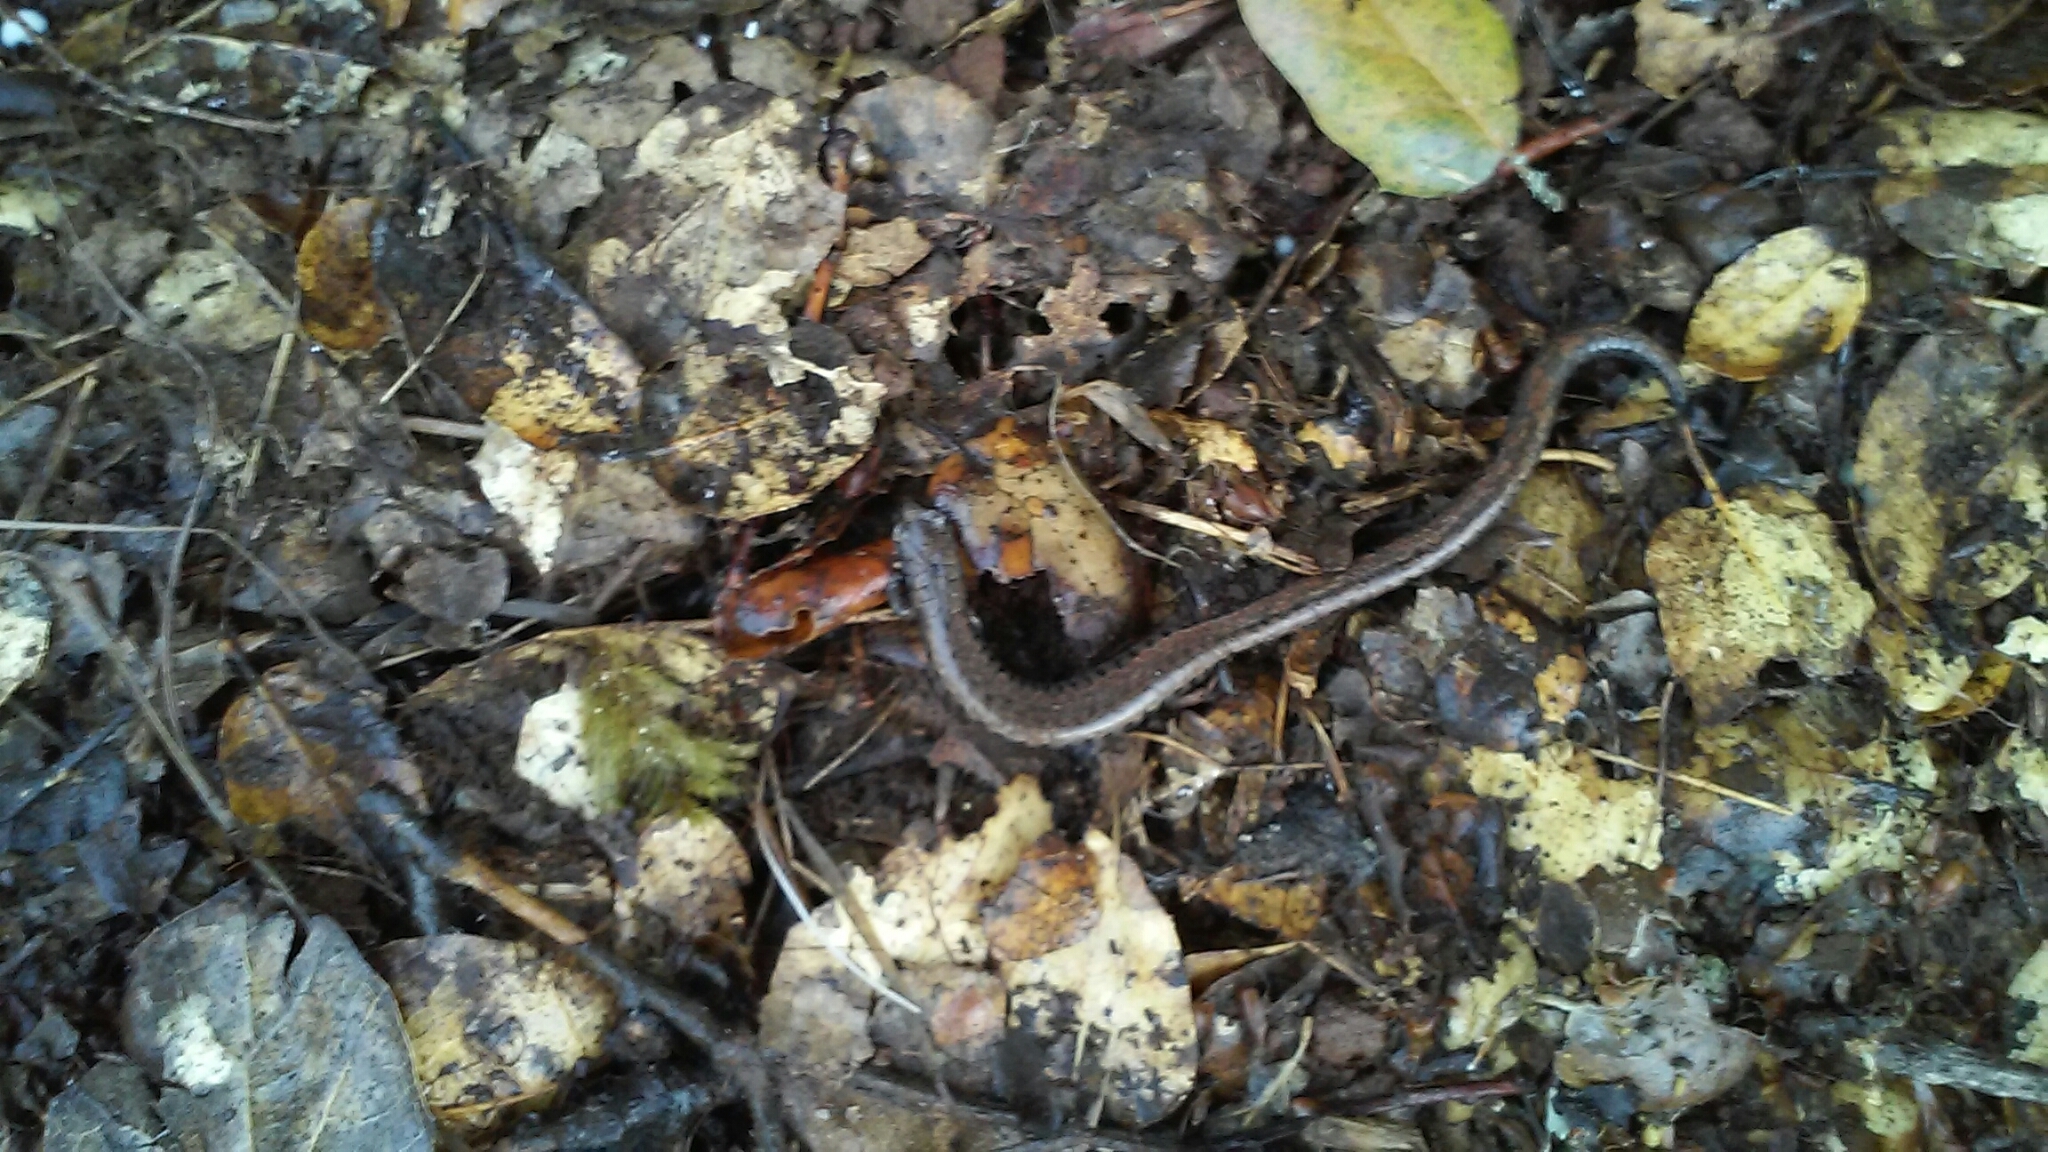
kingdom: Animalia
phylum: Chordata
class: Amphibia
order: Caudata
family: Plethodontidae
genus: Batrachoseps
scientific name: Batrachoseps attenuatus
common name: California slender salamander
